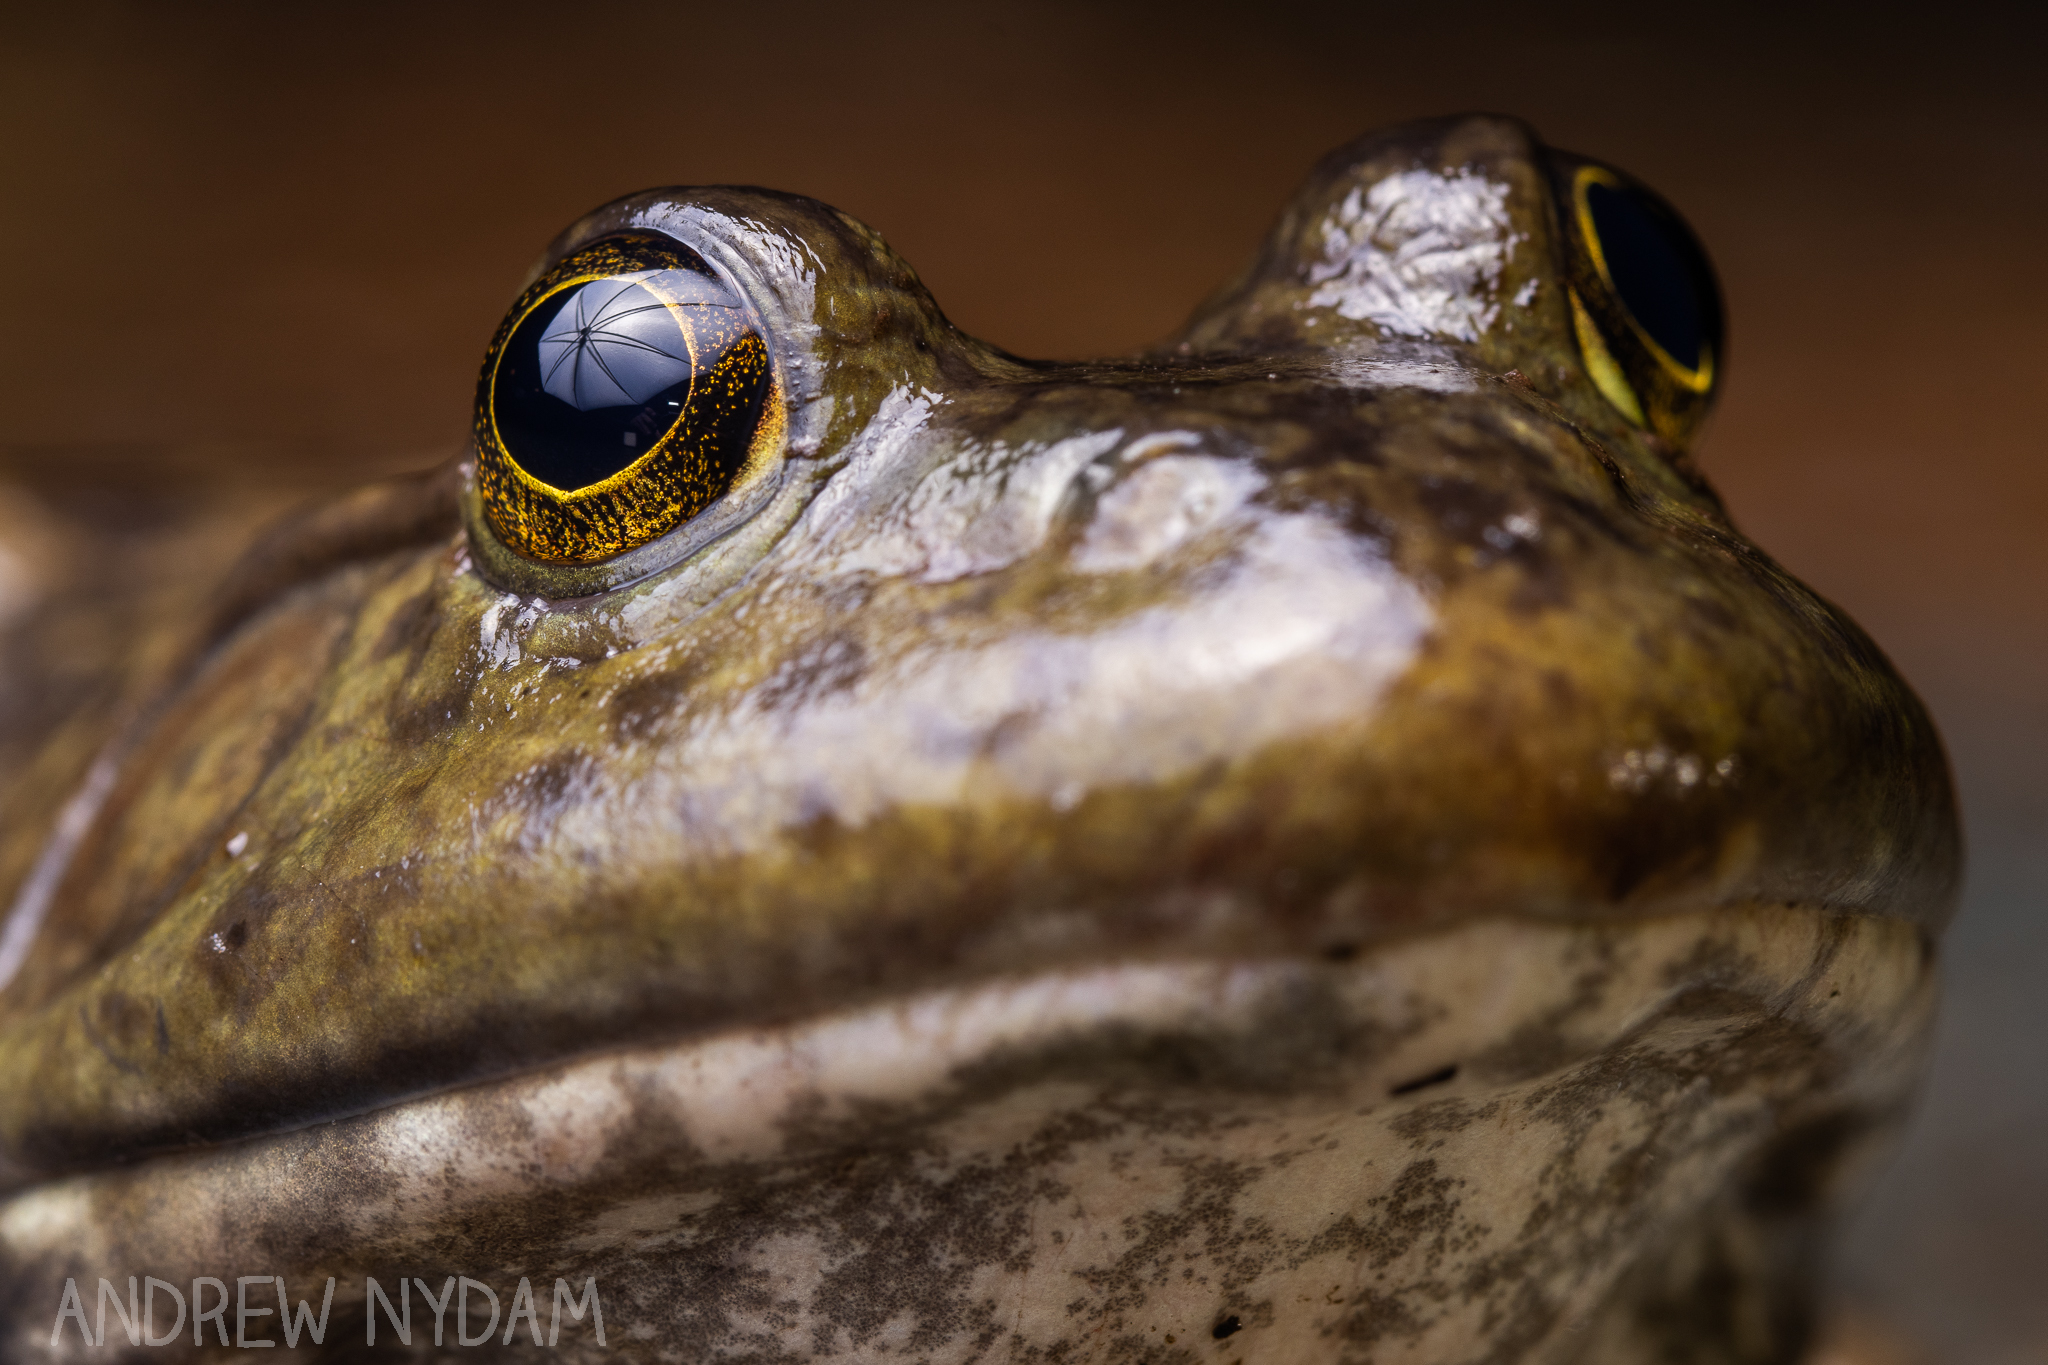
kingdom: Animalia
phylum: Chordata
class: Amphibia
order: Anura
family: Ranidae
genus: Lithobates
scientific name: Lithobates catesbeianus
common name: American bullfrog
